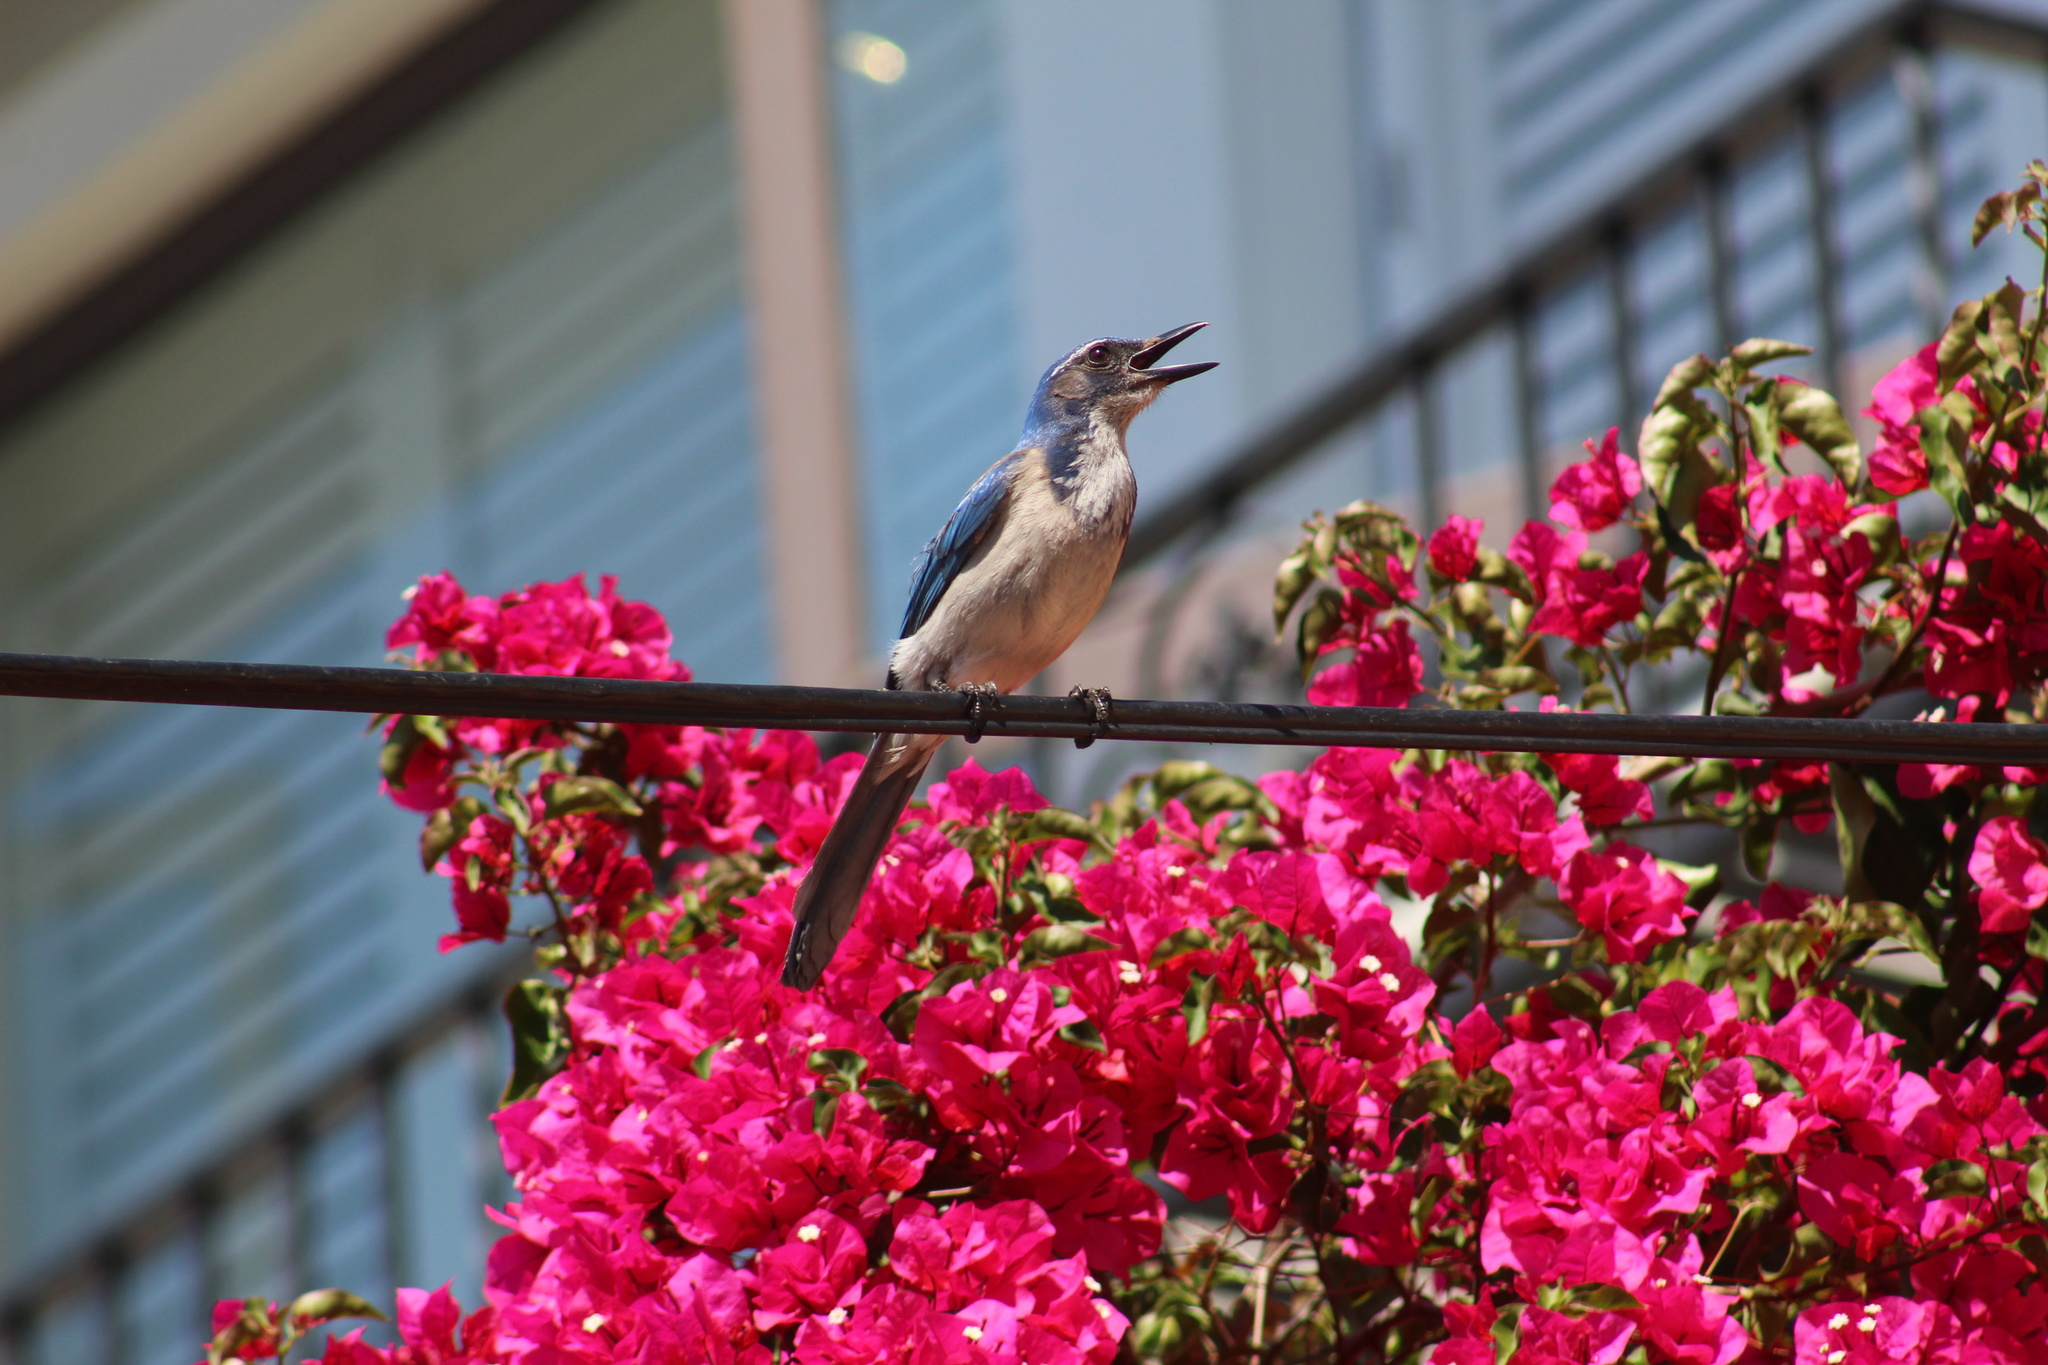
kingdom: Animalia
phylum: Chordata
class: Aves
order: Passeriformes
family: Corvidae
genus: Aphelocoma
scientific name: Aphelocoma californica
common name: California scrub-jay
